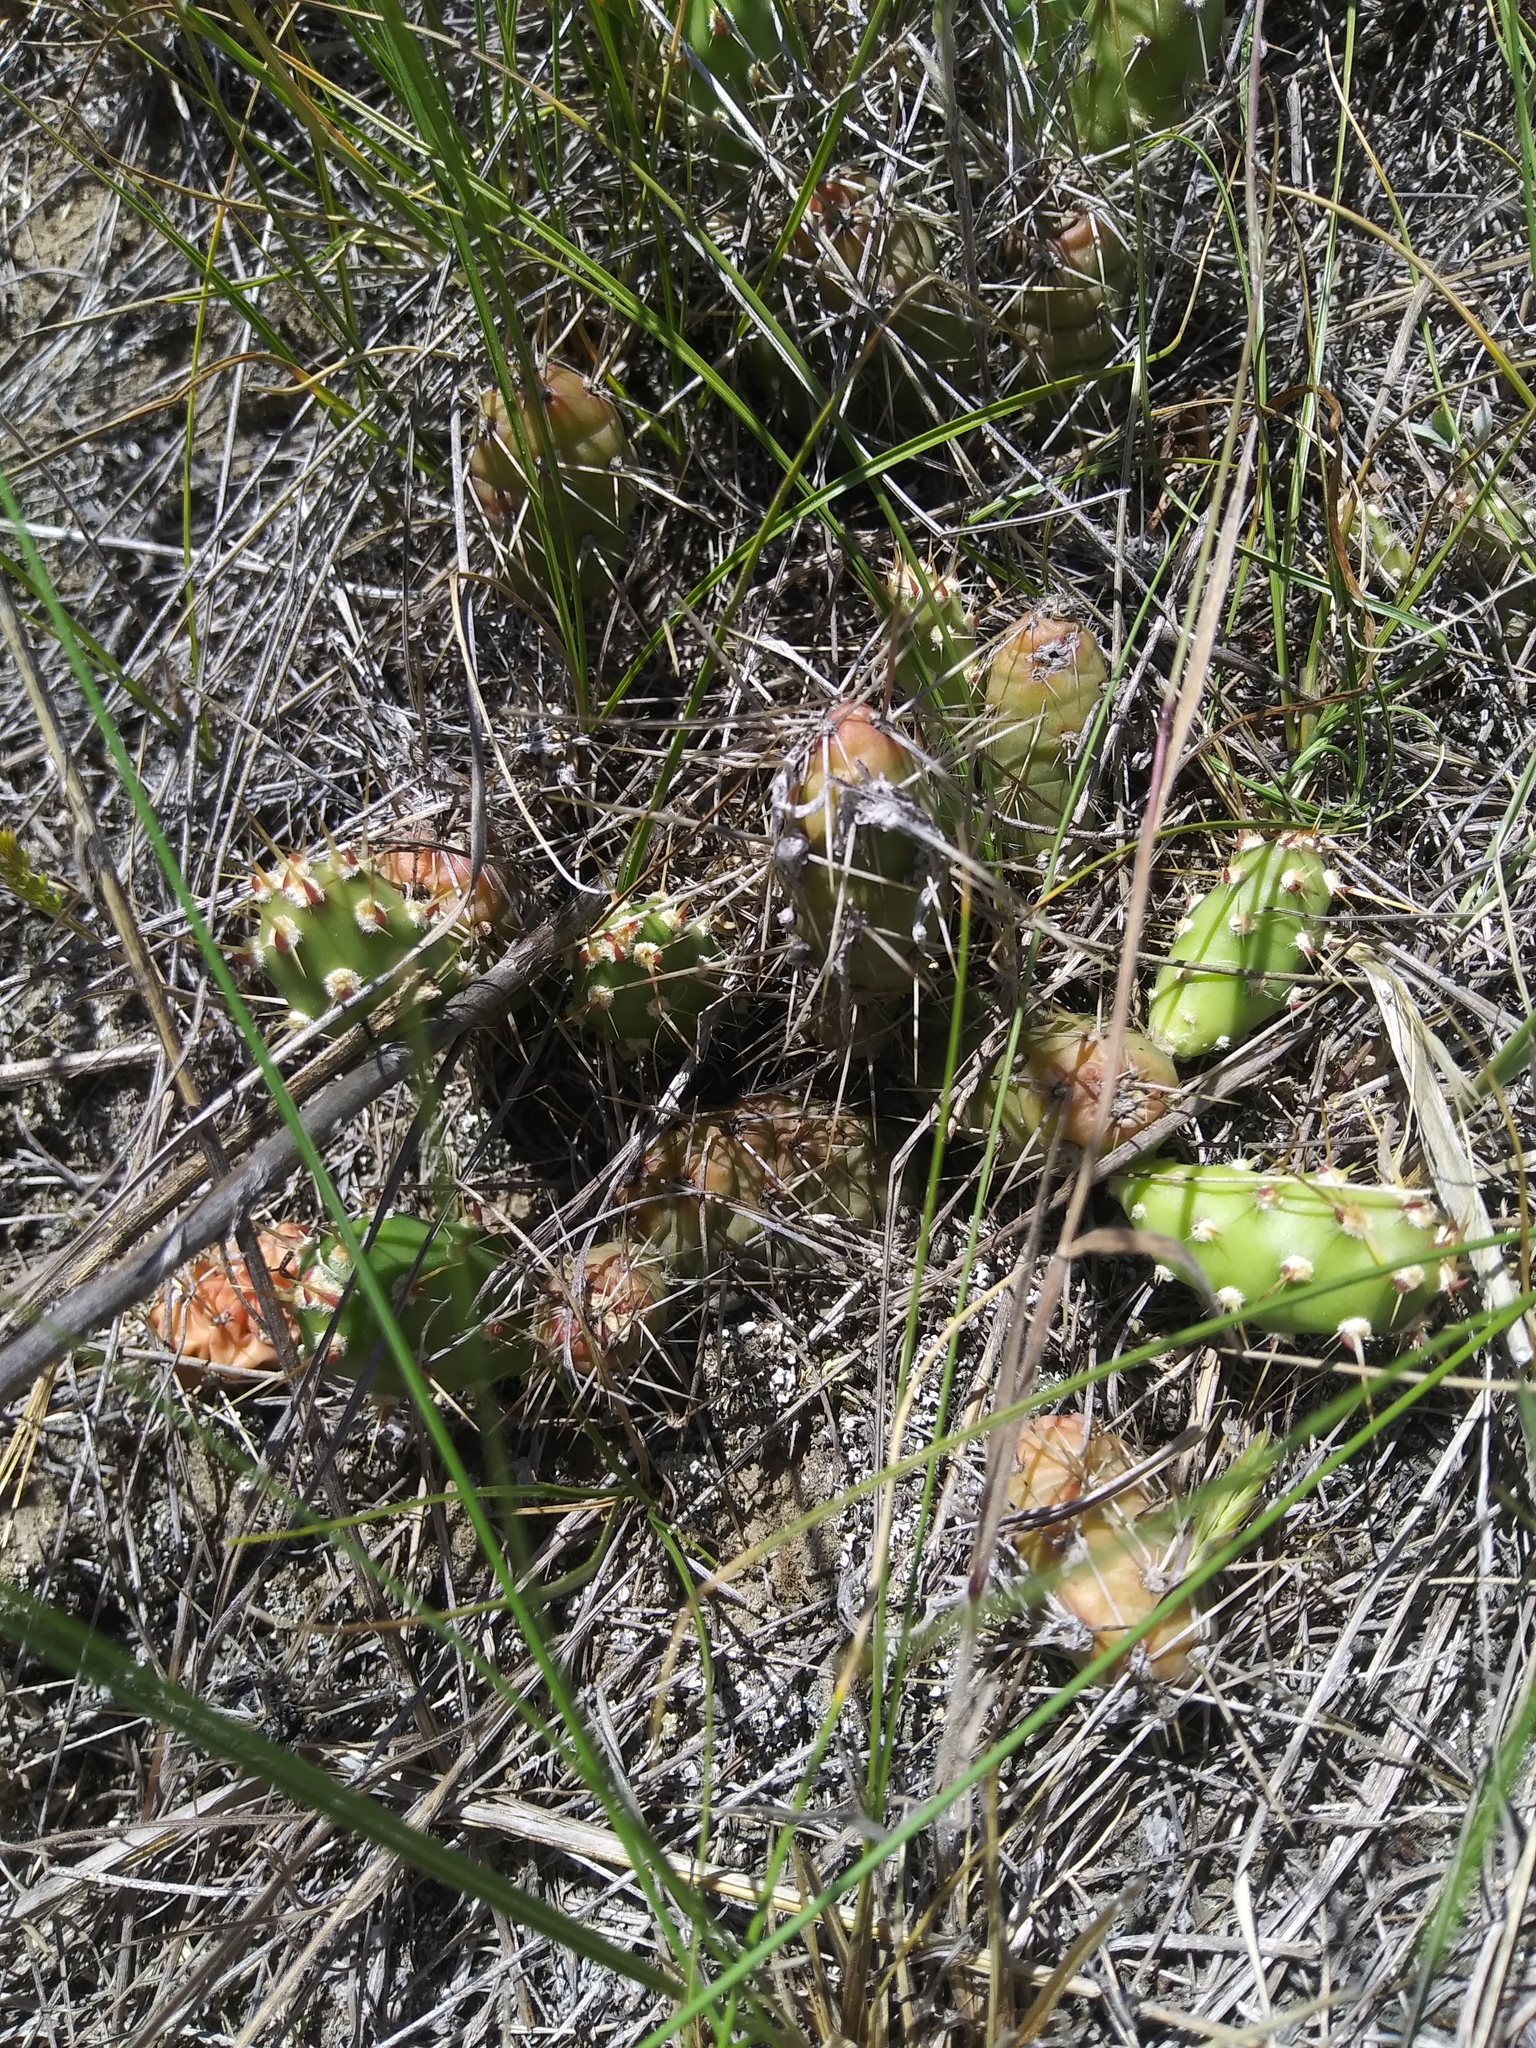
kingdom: Plantae
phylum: Tracheophyta
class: Magnoliopsida
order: Caryophyllales
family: Cactaceae
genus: Opuntia
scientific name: Opuntia fragilis
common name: Brittle cactus
